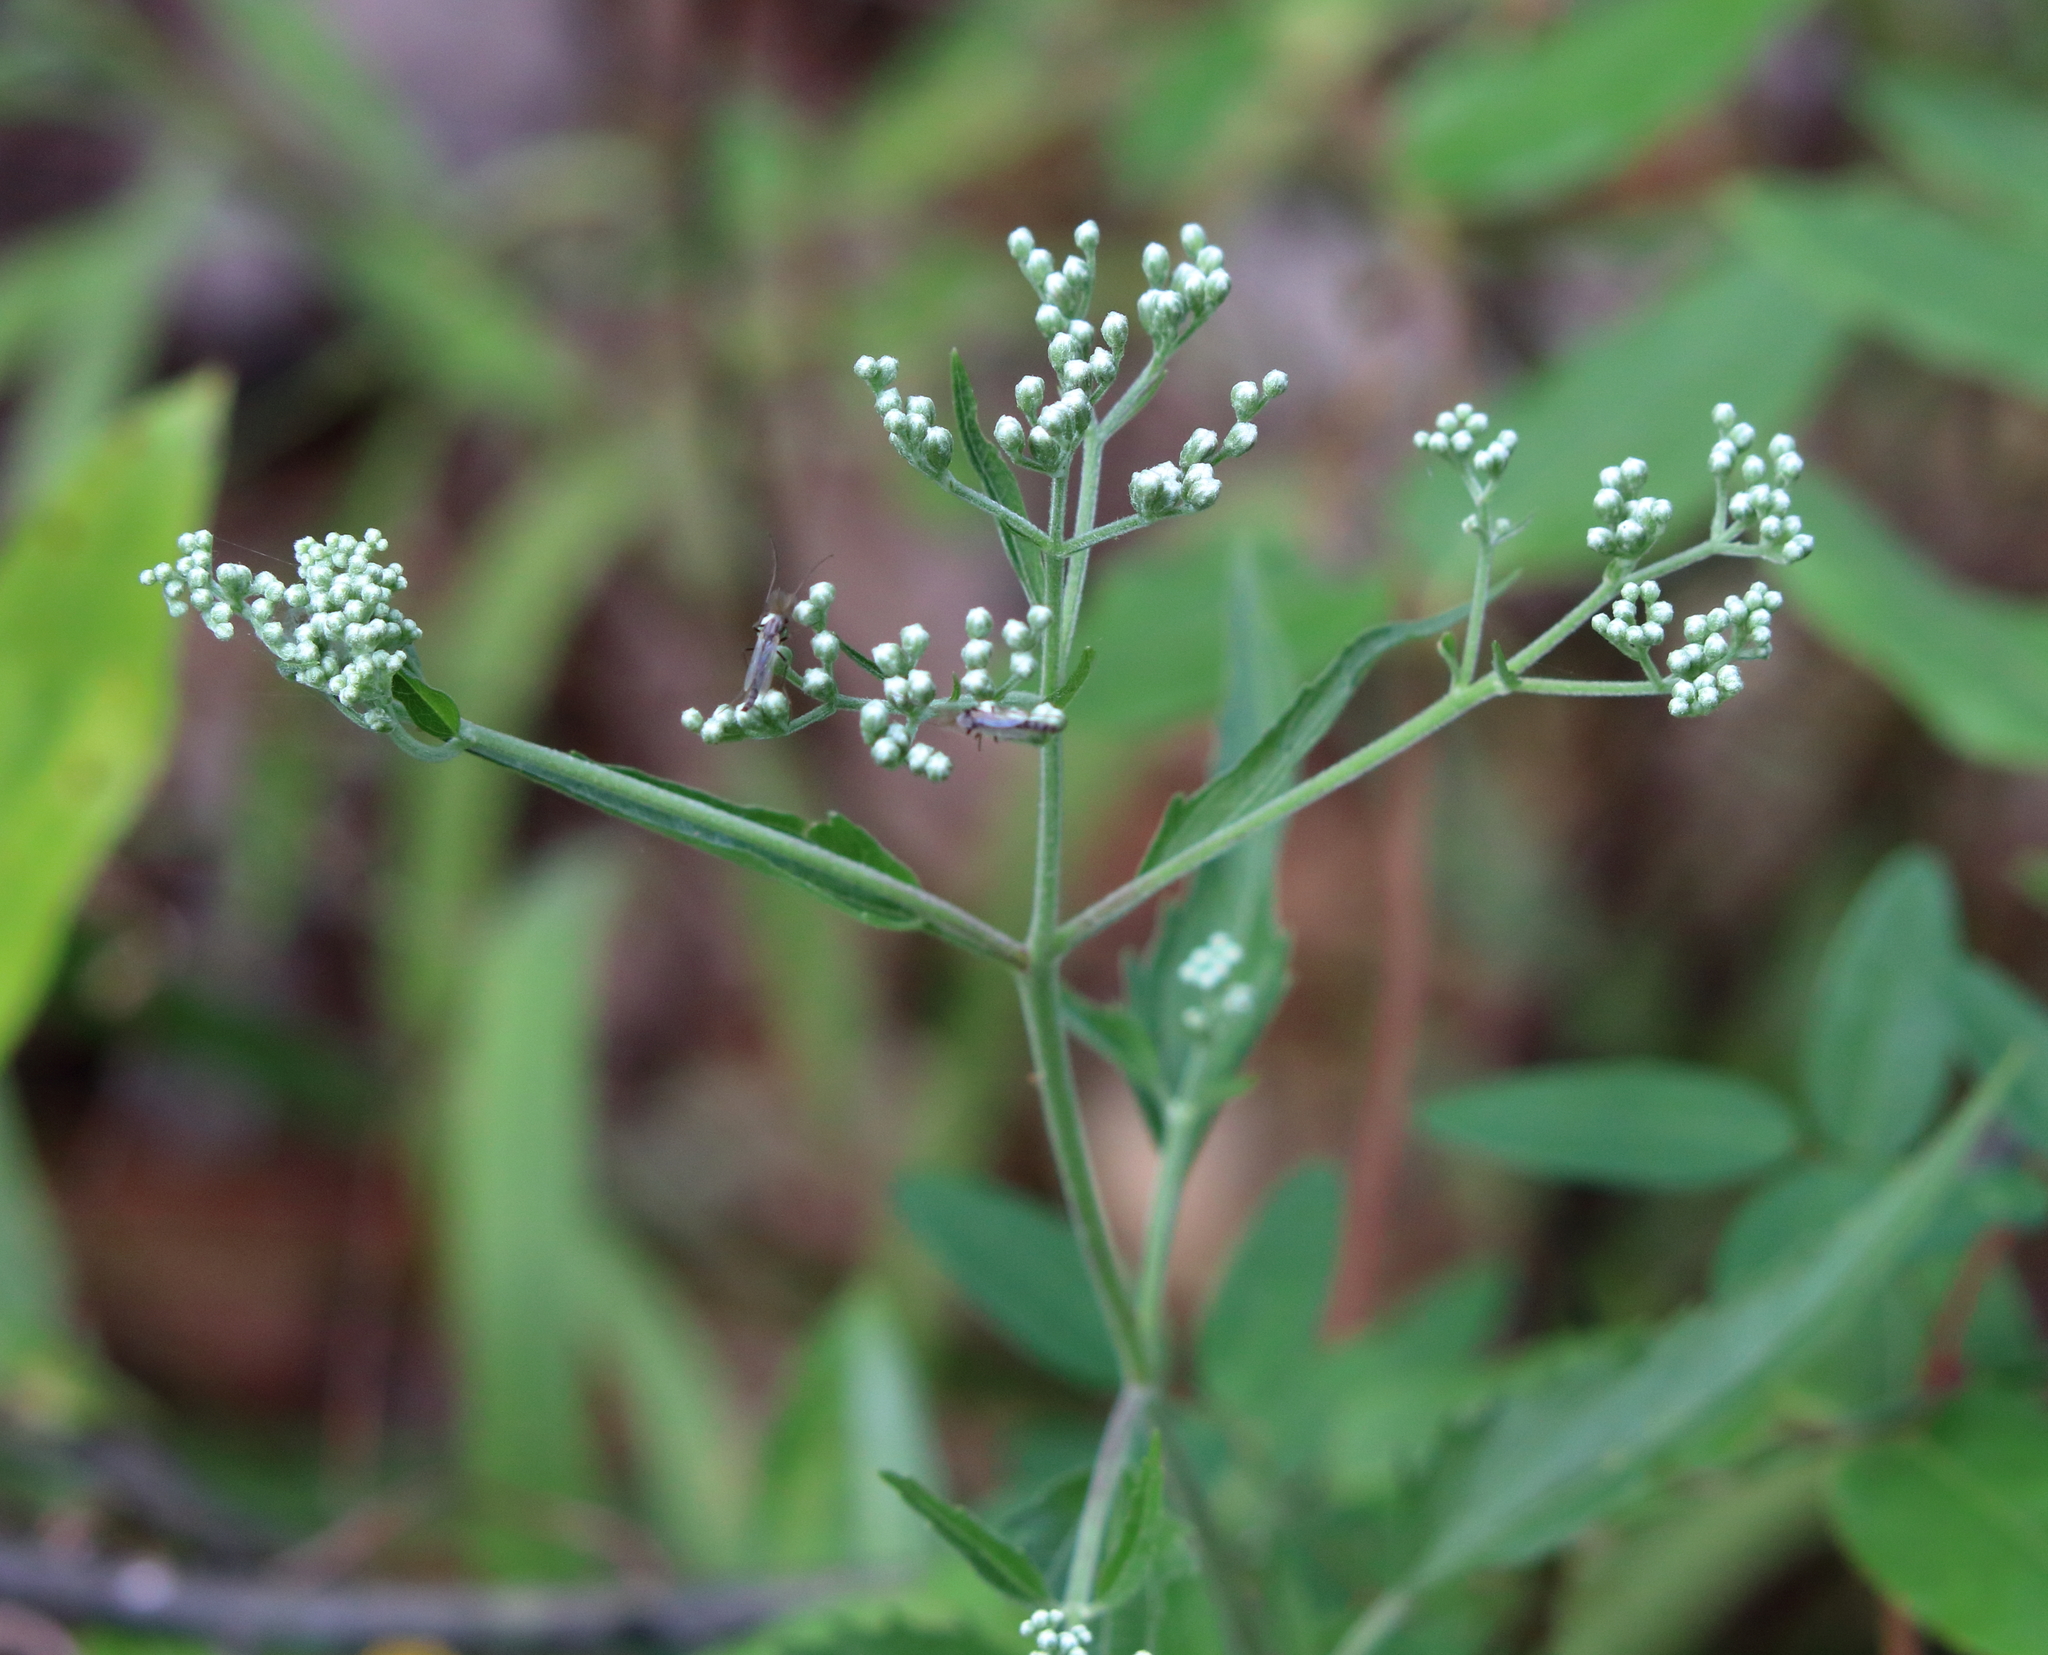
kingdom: Plantae
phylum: Tracheophyta
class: Magnoliopsida
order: Asterales
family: Asteraceae
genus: Eupatorium
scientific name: Eupatorium serotinum
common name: Late boneset
